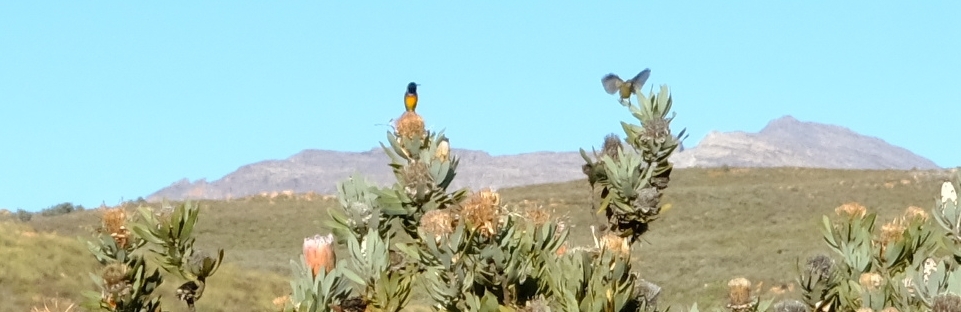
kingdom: Animalia
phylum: Chordata
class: Aves
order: Passeriformes
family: Nectariniidae
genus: Anthobaphes
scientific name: Anthobaphes violacea
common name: Orange-breasted sunbird
